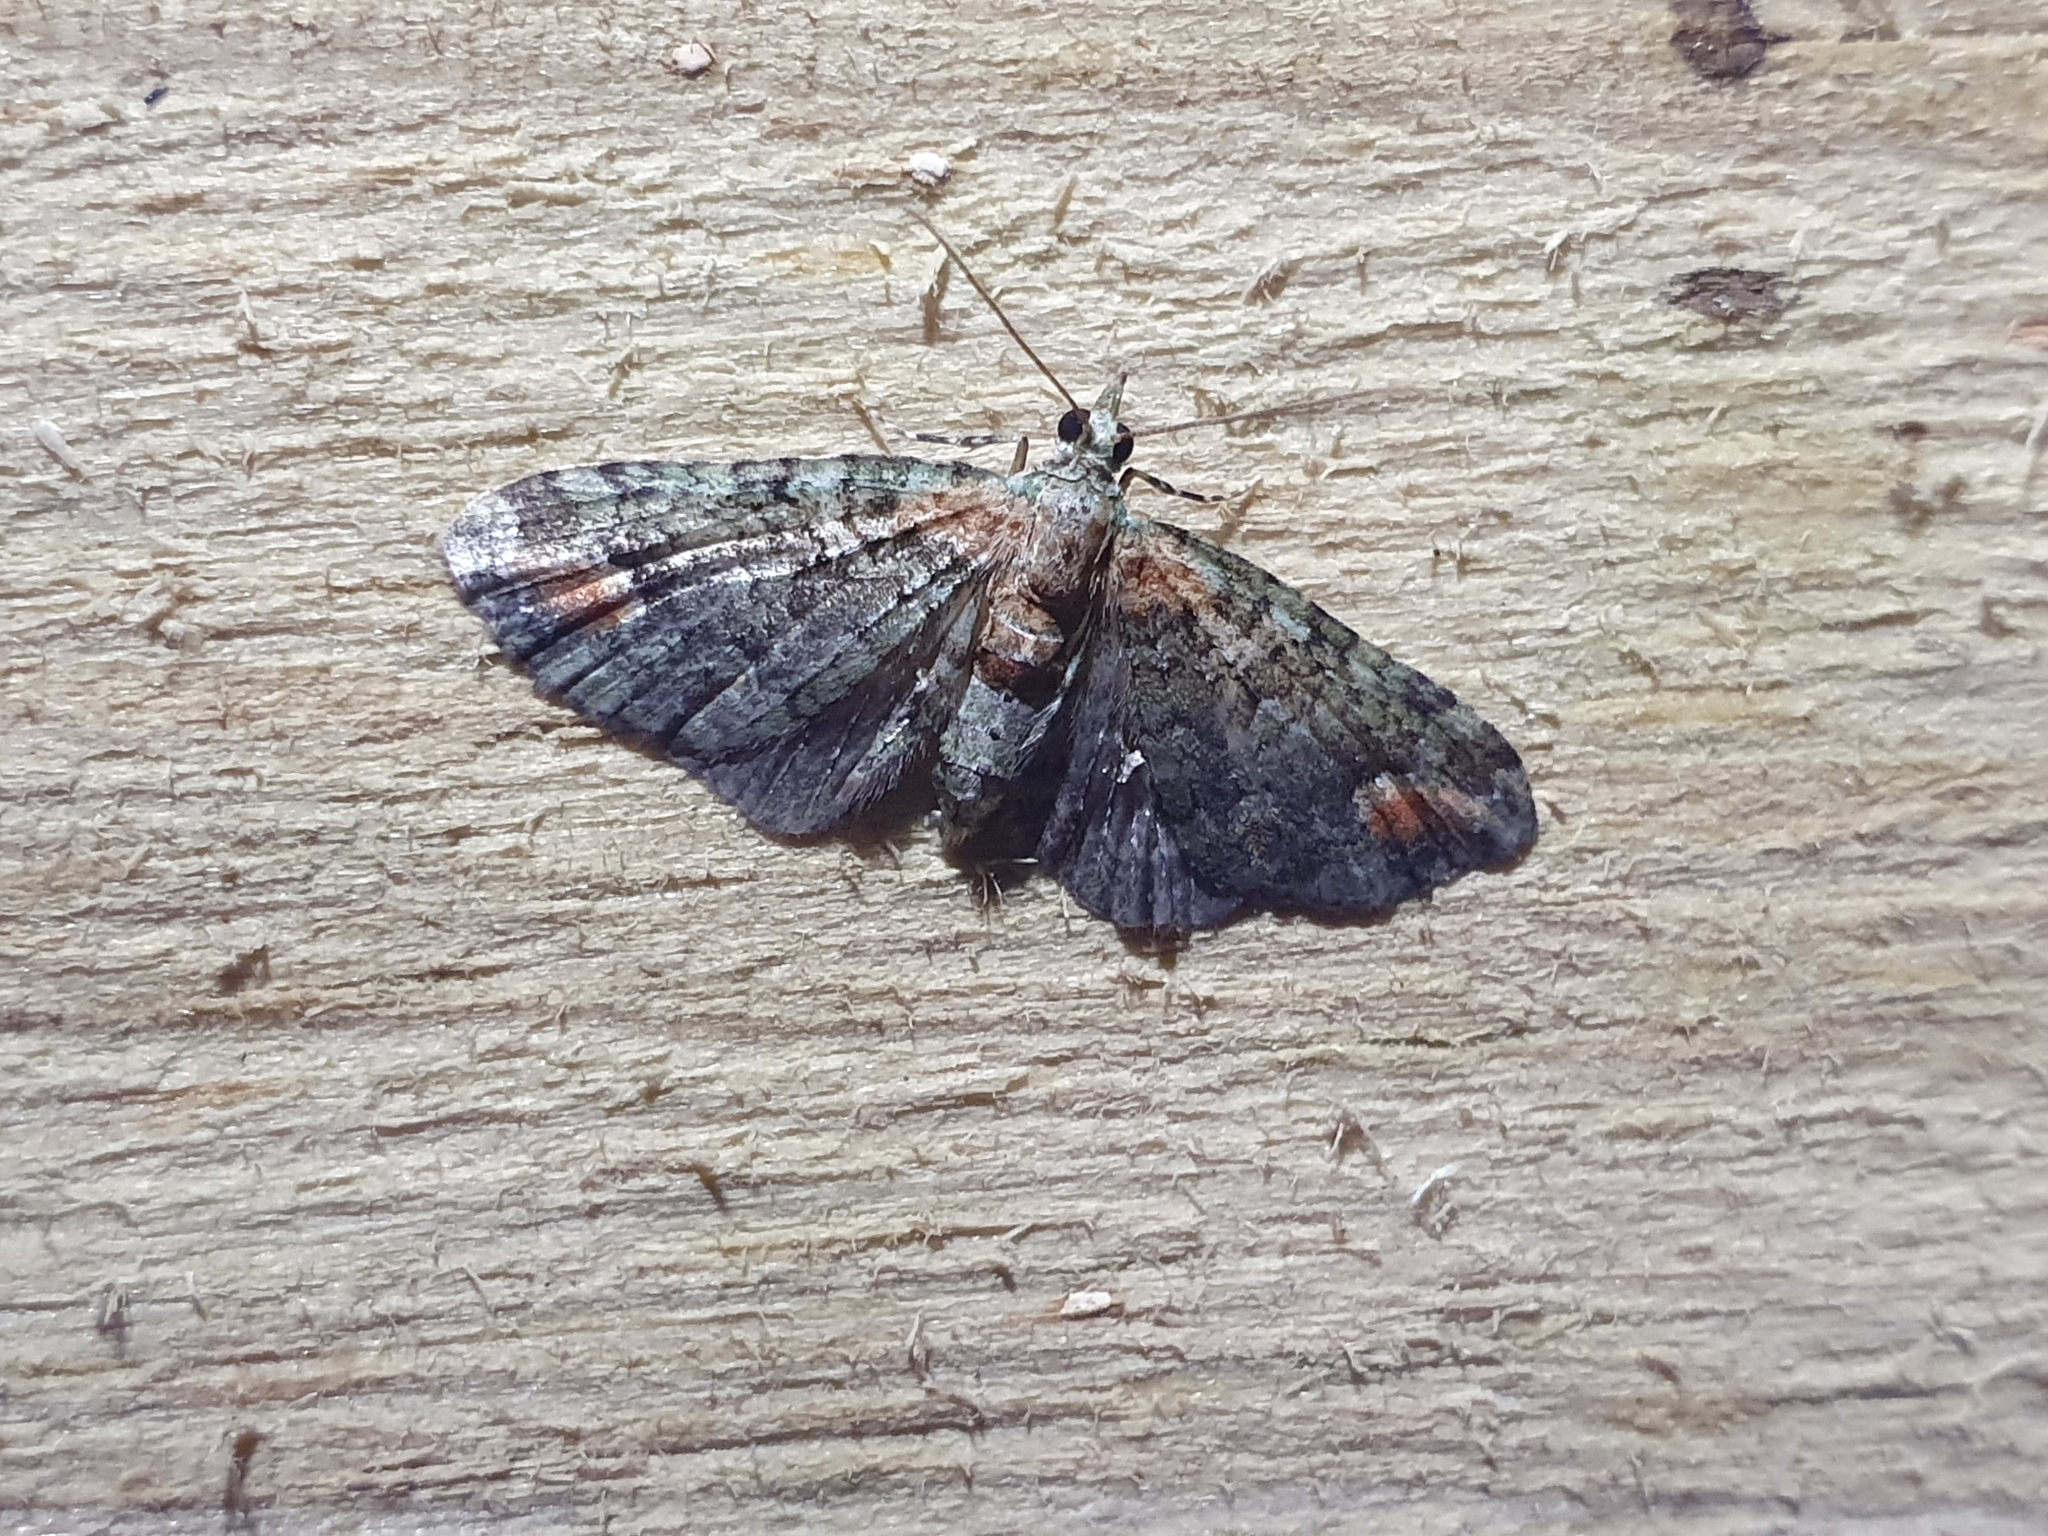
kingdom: Animalia
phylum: Arthropoda
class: Insecta
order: Lepidoptera
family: Geometridae
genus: Idaea
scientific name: Idaea mutanda
